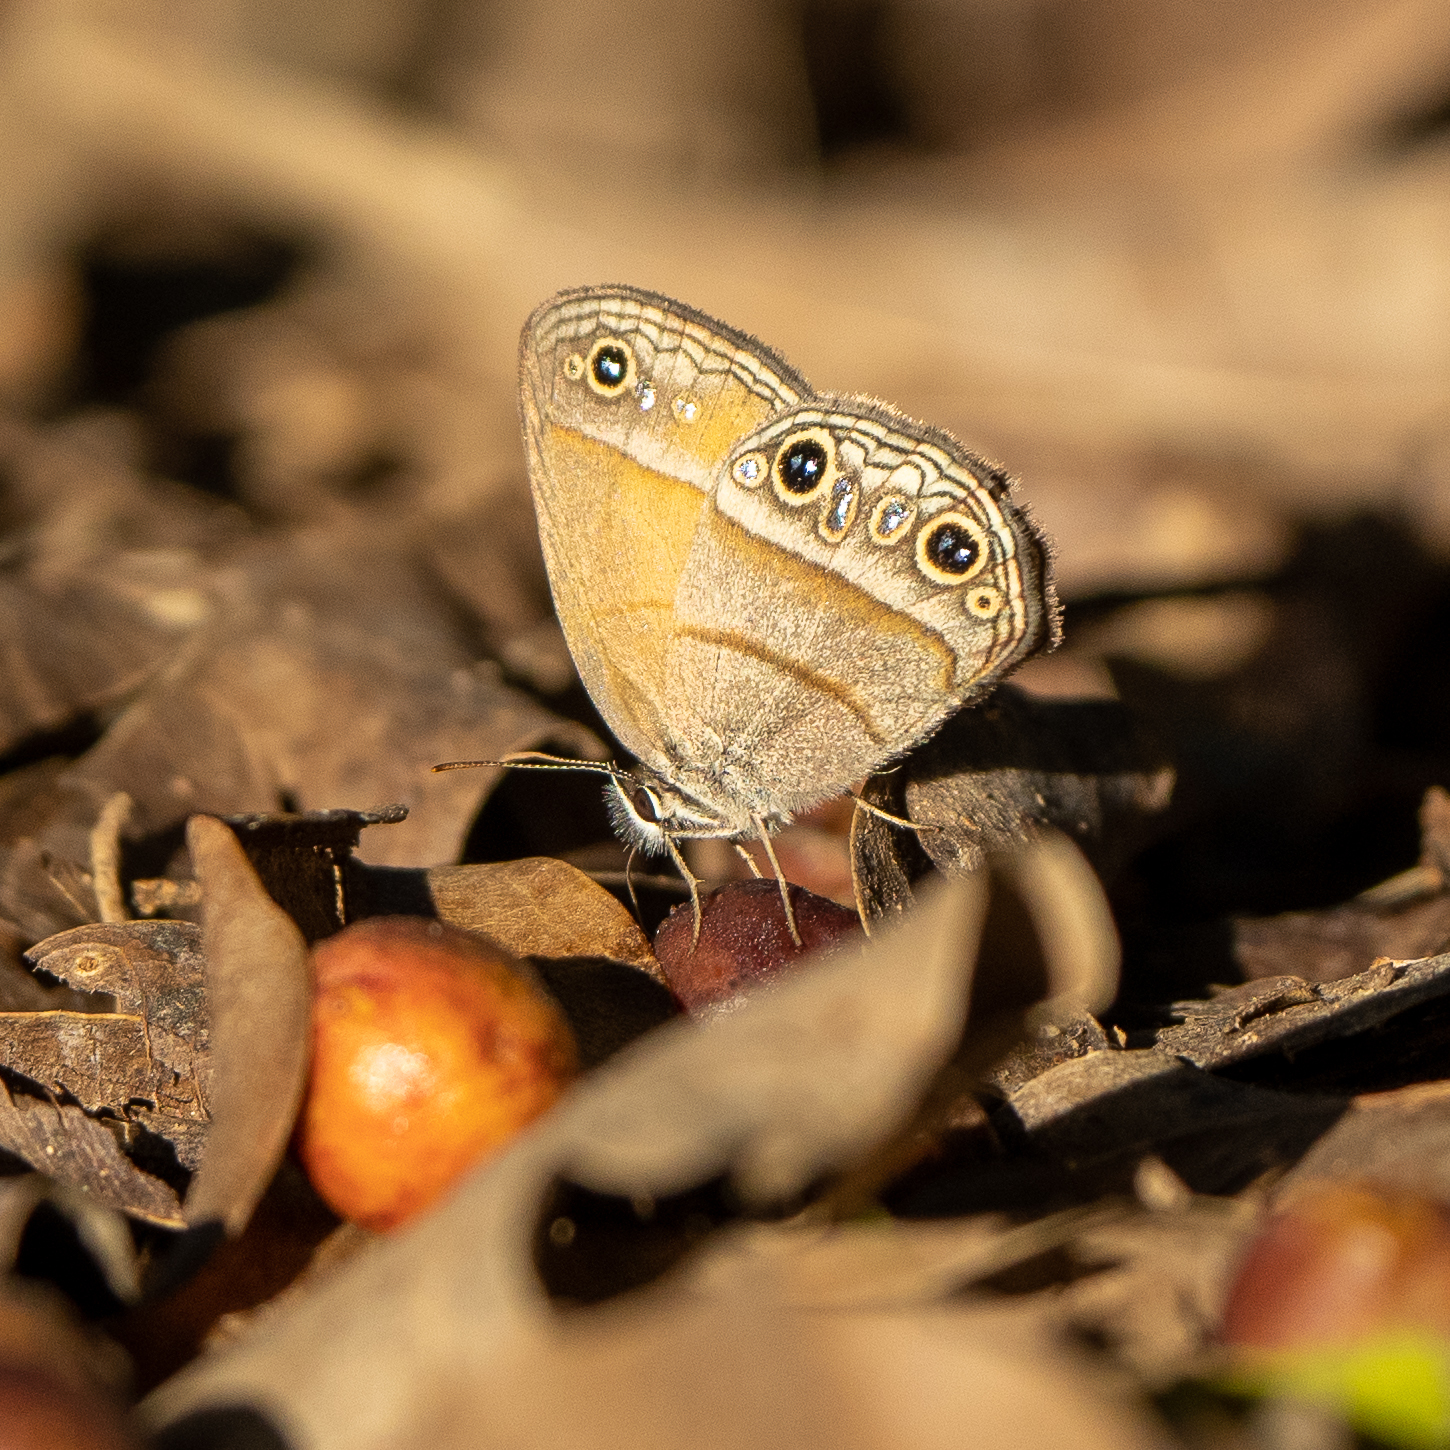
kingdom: Animalia
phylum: Arthropoda
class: Insecta
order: Lepidoptera
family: Nymphalidae
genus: Euptychia
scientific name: Euptychia Cissia pompilia
